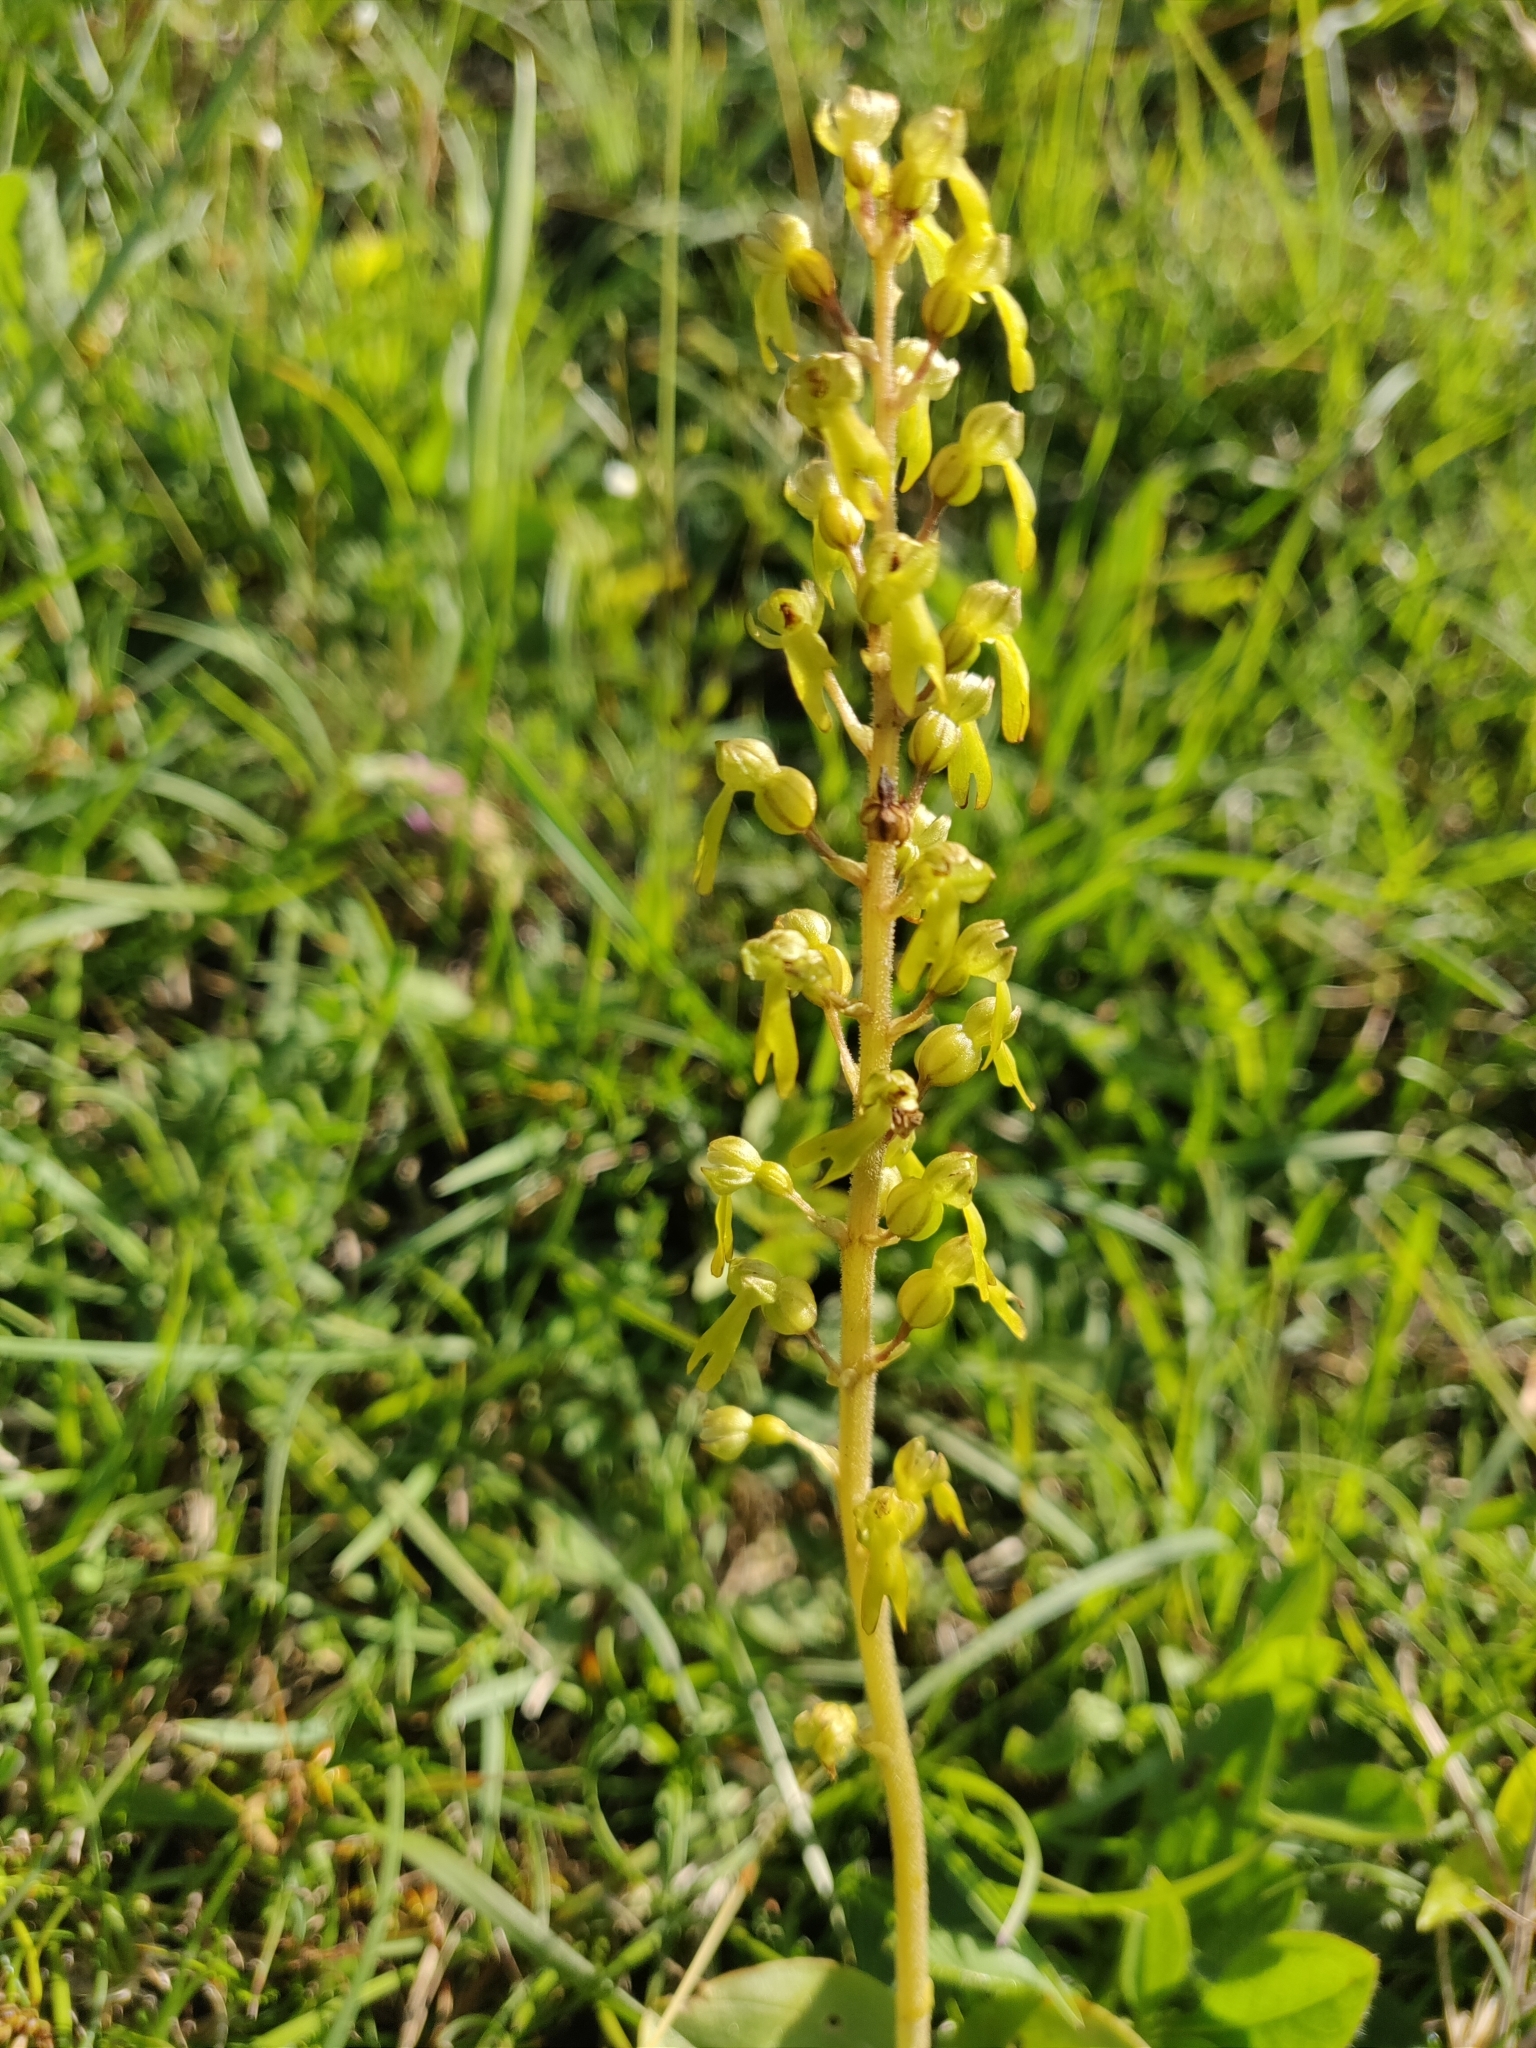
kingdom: Plantae
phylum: Tracheophyta
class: Liliopsida
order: Asparagales
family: Orchidaceae
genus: Neottia
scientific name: Neottia ovata
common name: Common twayblade
